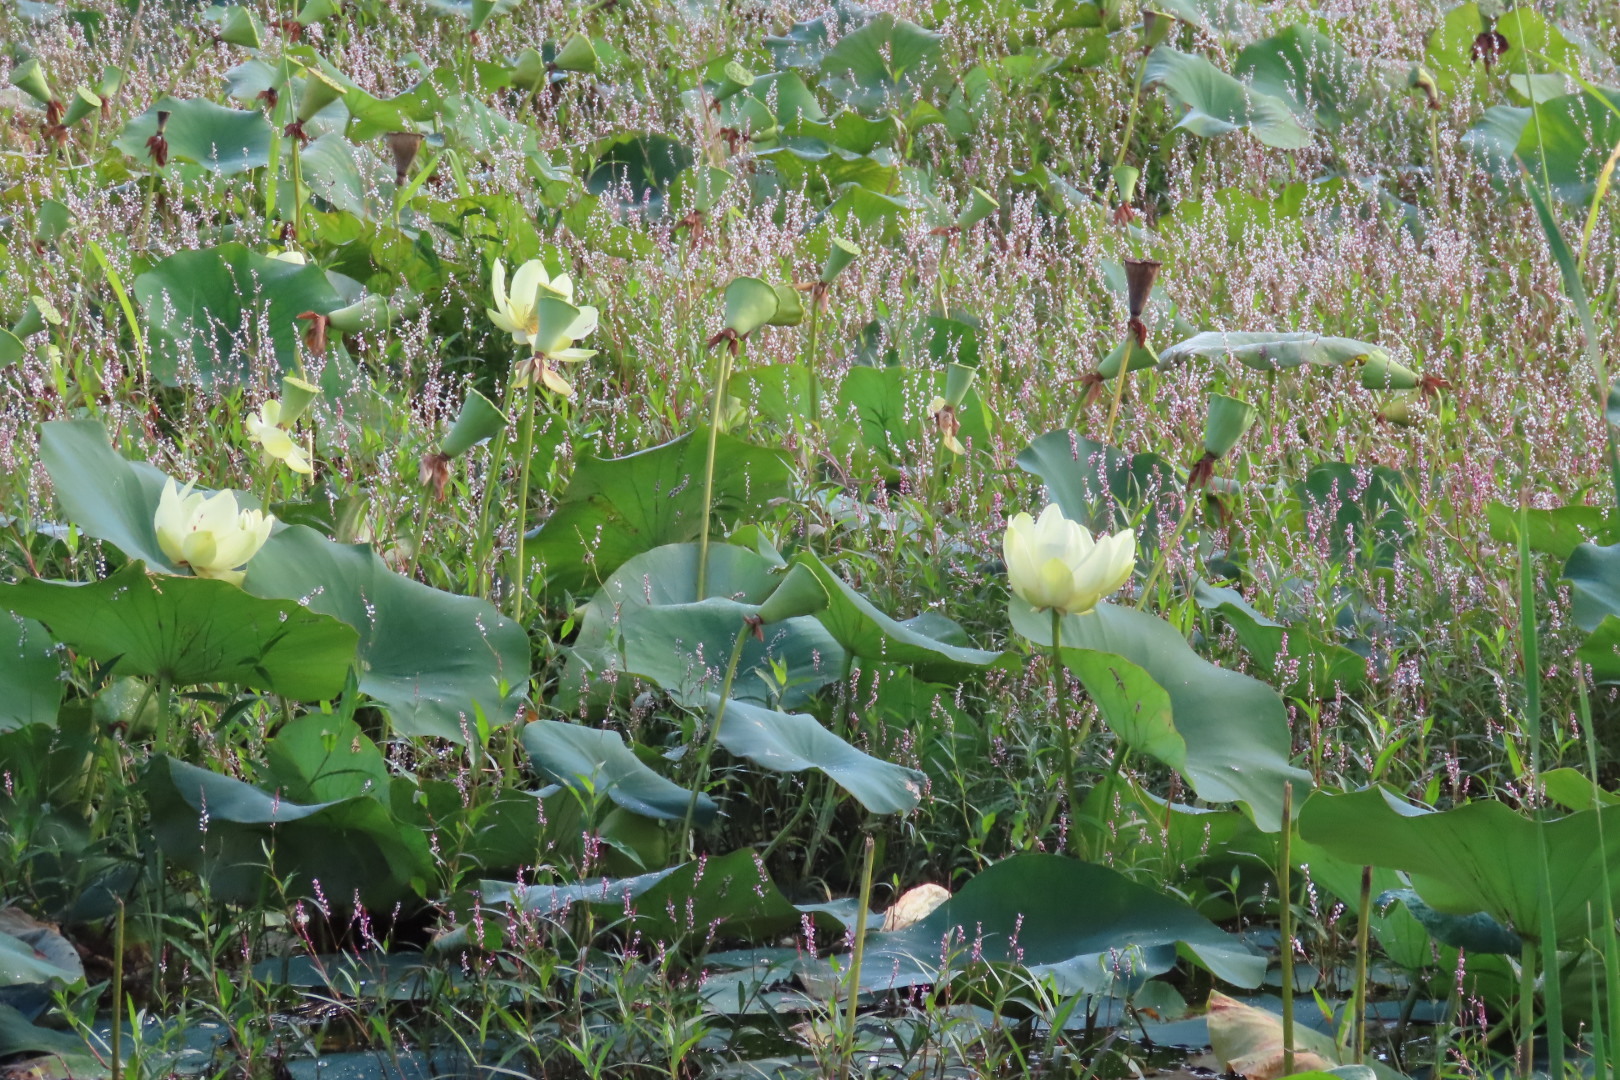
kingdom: Plantae
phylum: Tracheophyta
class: Magnoliopsida
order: Proteales
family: Nelumbonaceae
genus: Nelumbo
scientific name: Nelumbo lutea
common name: American lotus
